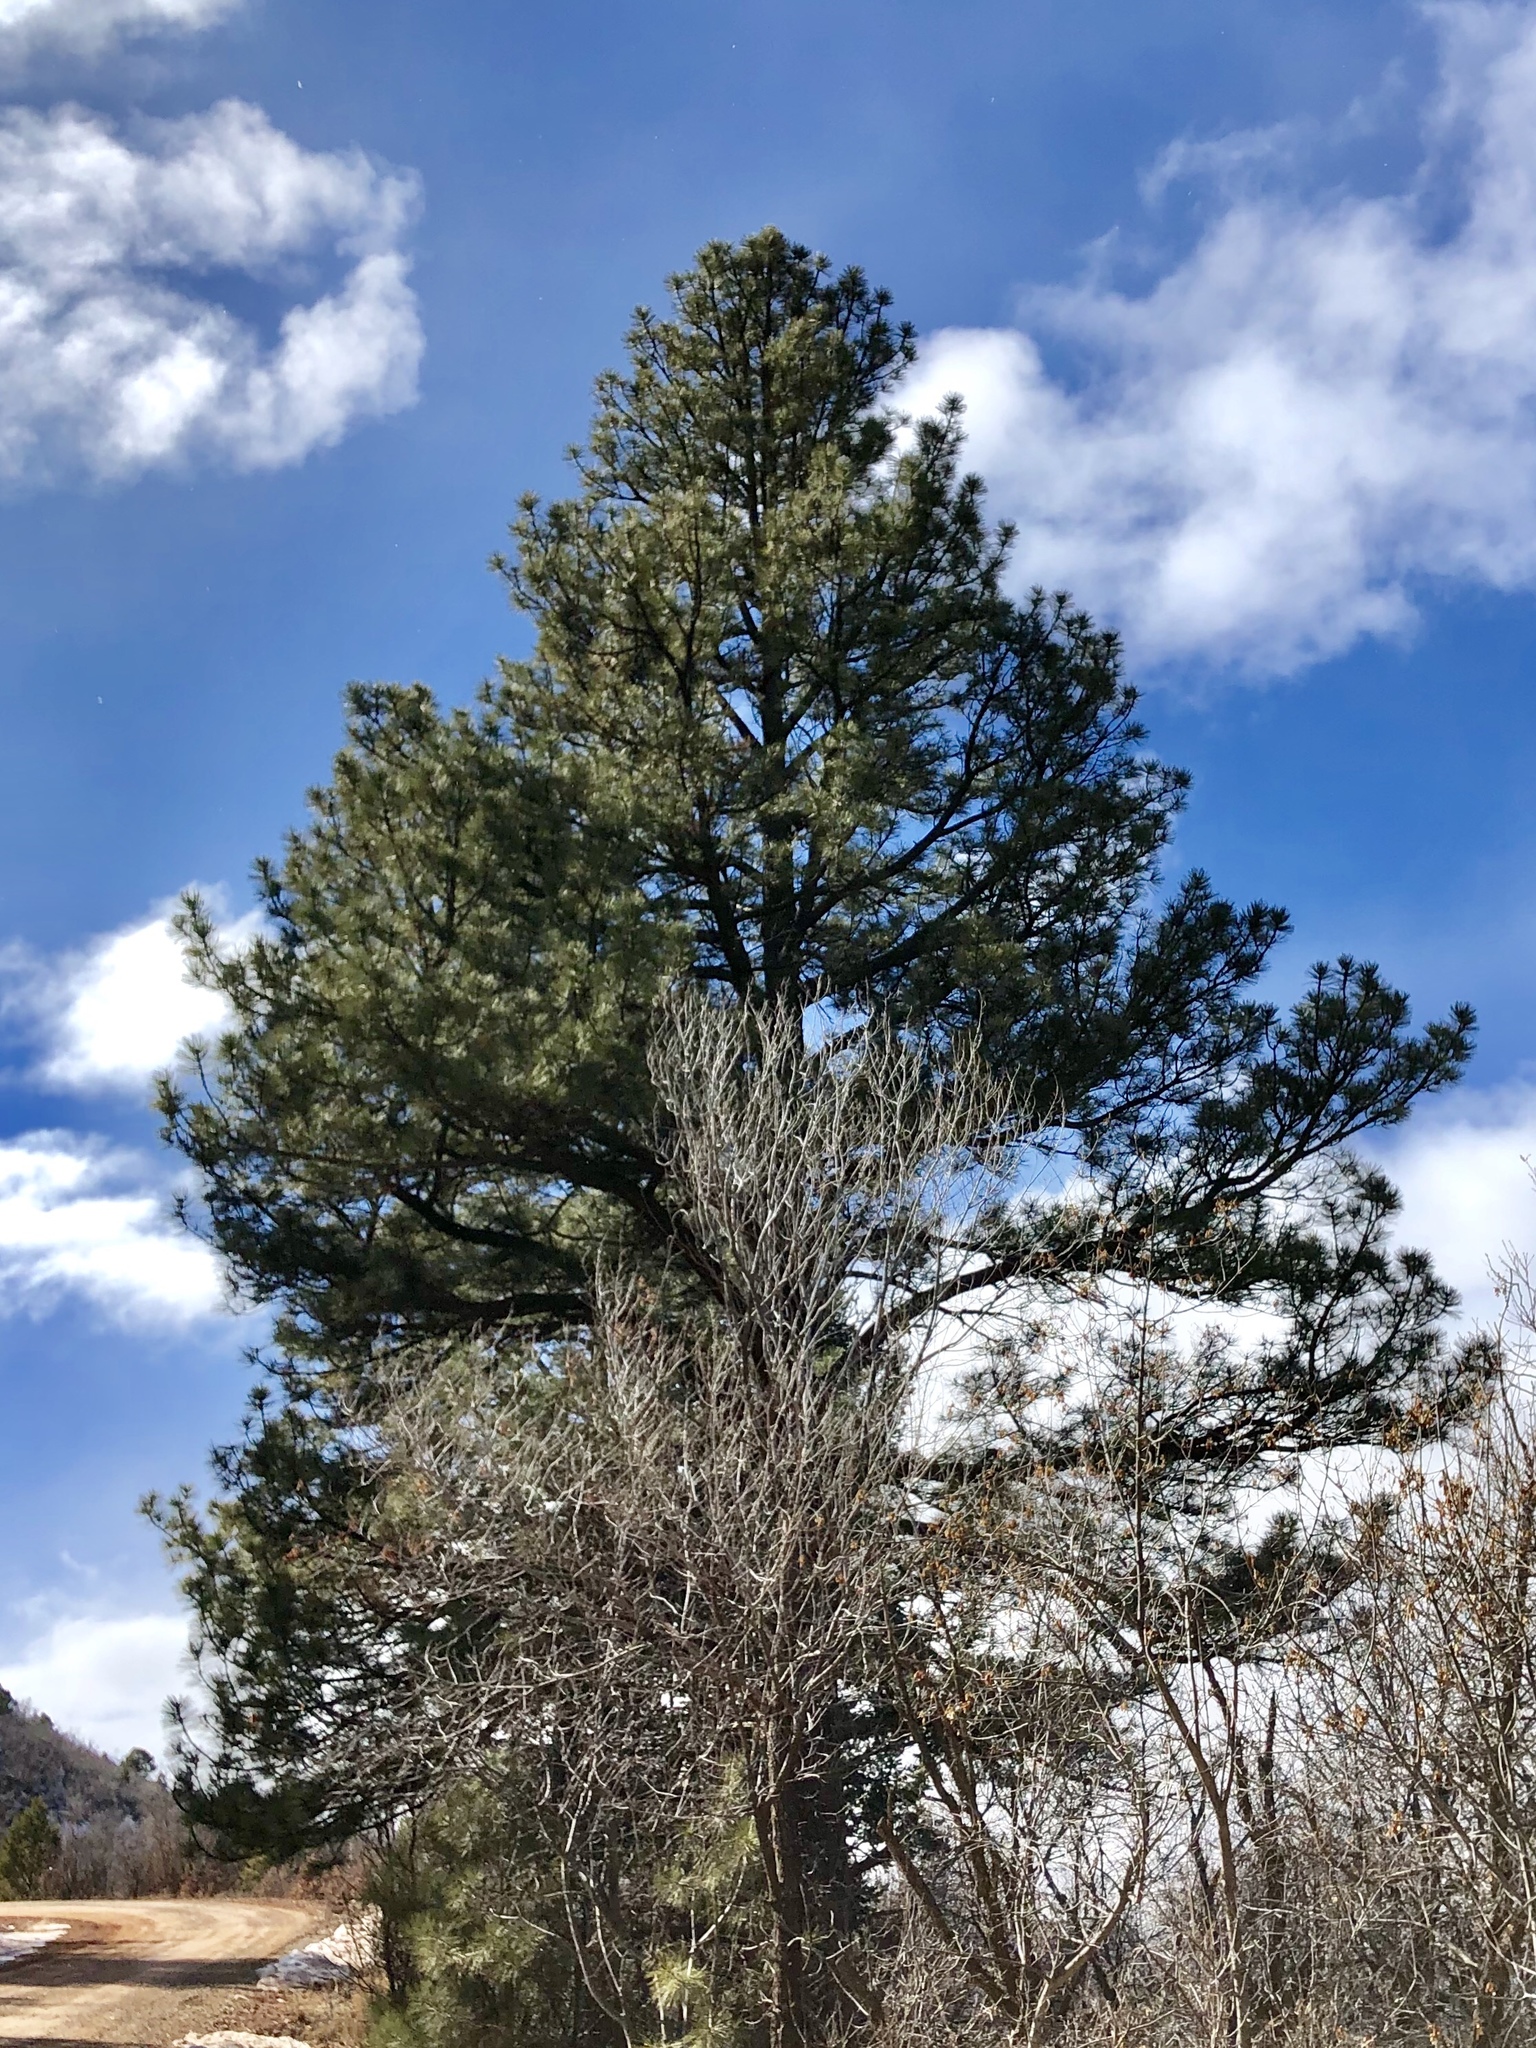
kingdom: Plantae
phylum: Tracheophyta
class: Pinopsida
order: Pinales
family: Pinaceae
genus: Pinus
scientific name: Pinus ponderosa
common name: Western yellow-pine
